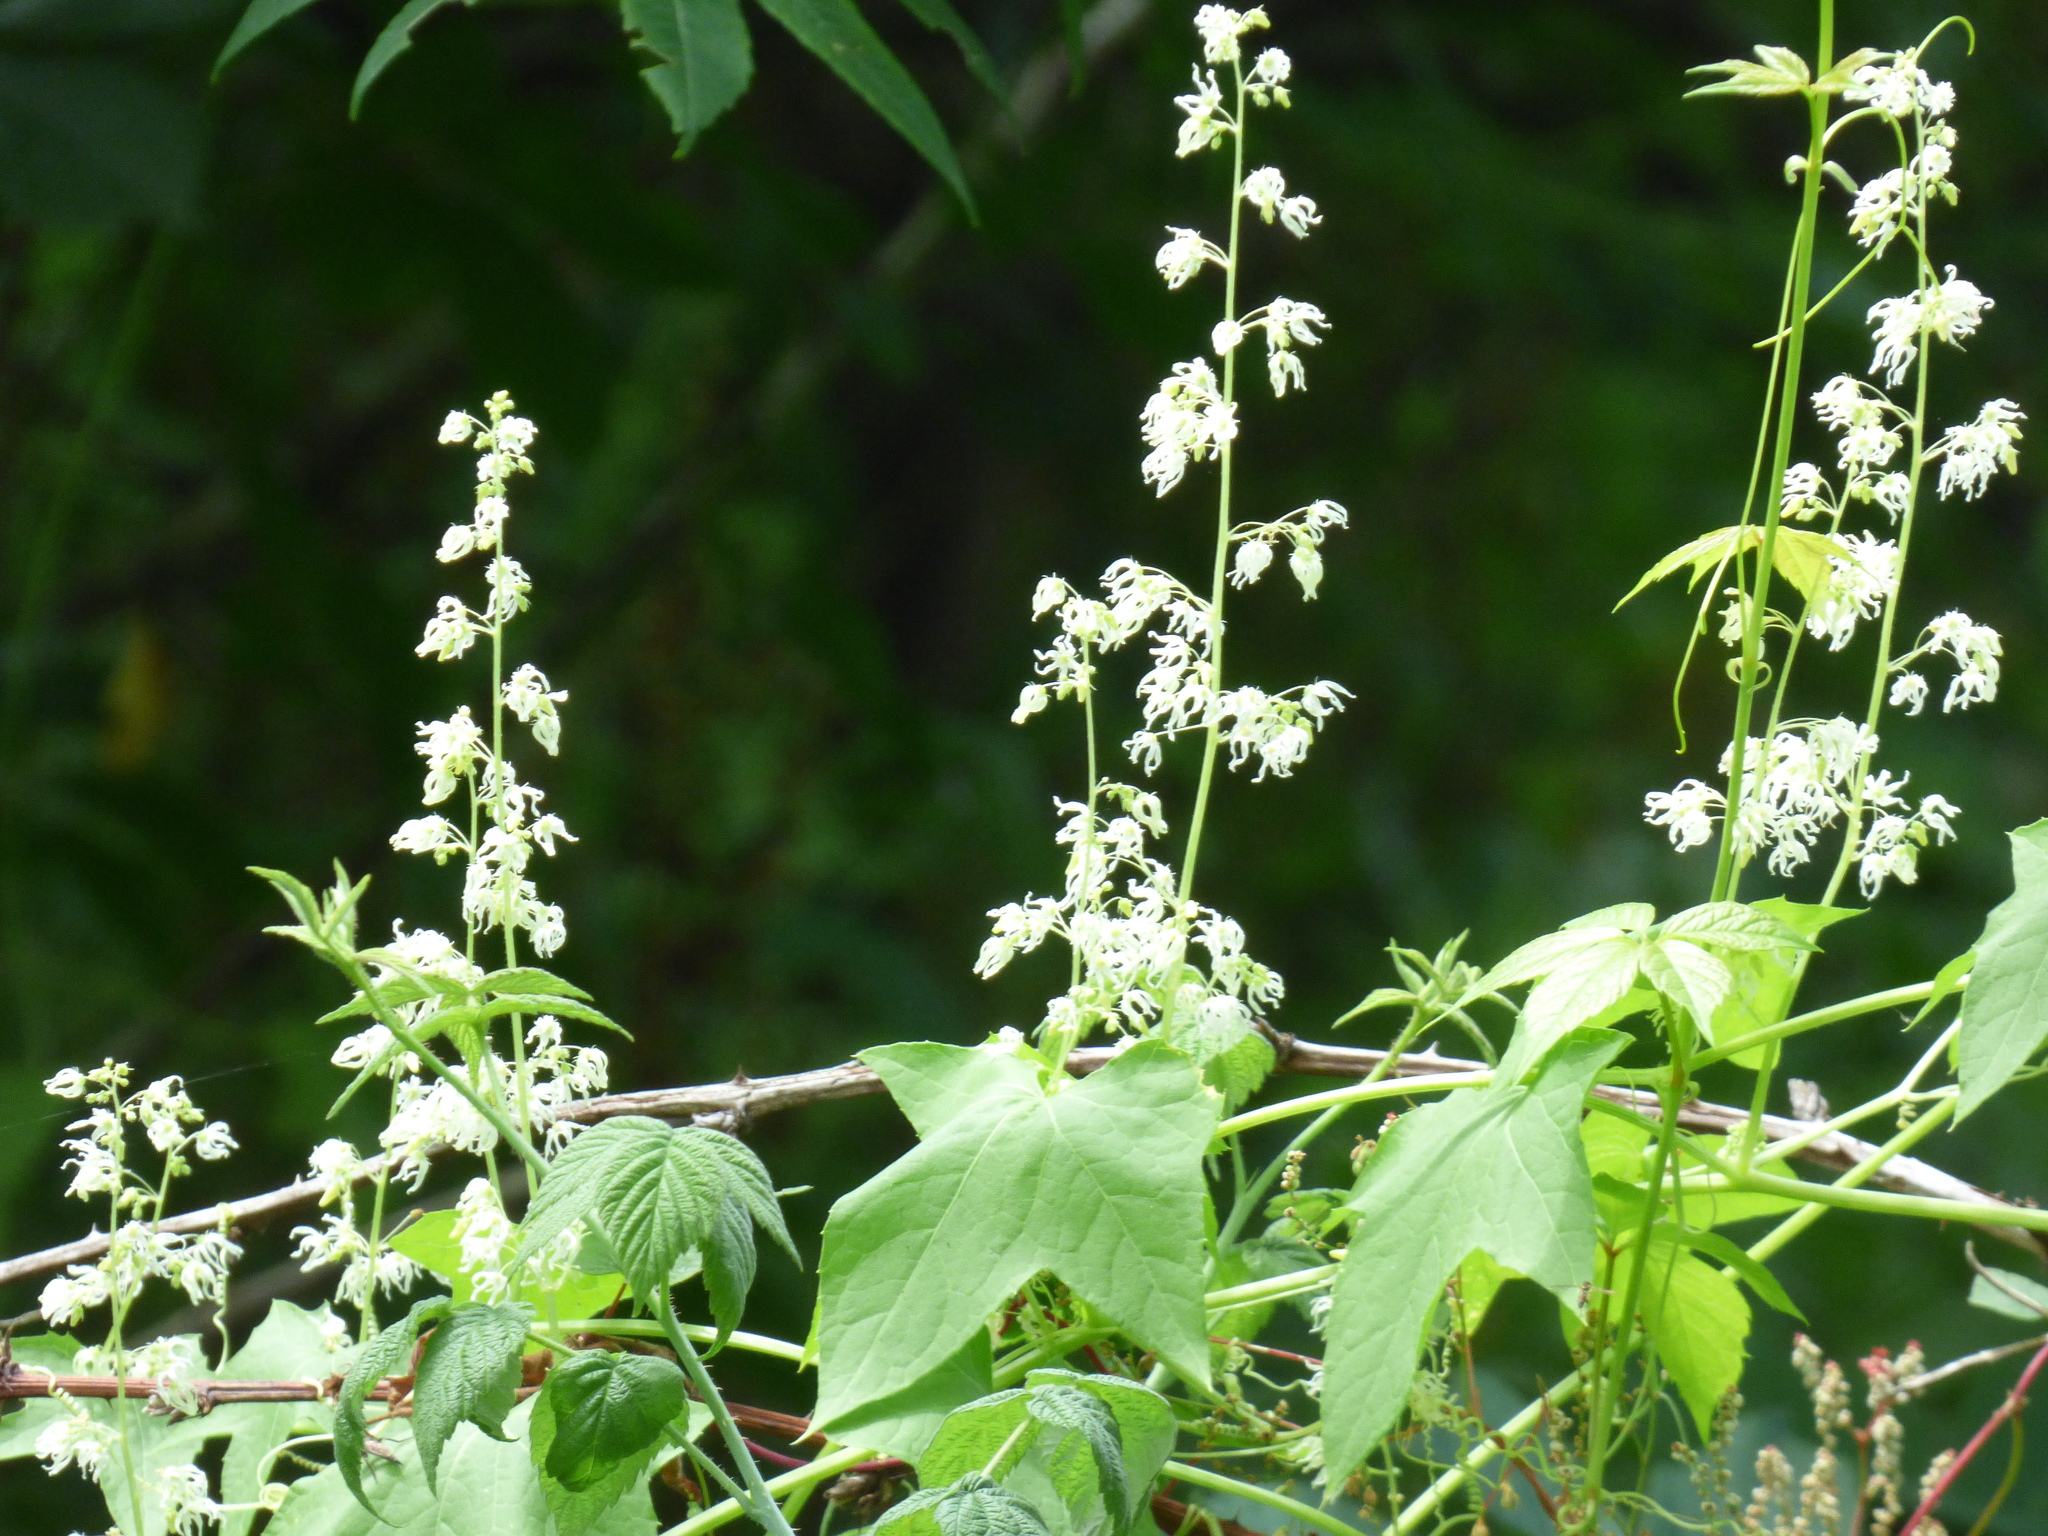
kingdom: Plantae
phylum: Tracheophyta
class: Magnoliopsida
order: Cucurbitales
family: Cucurbitaceae
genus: Echinocystis
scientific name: Echinocystis lobata
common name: Wild cucumber
